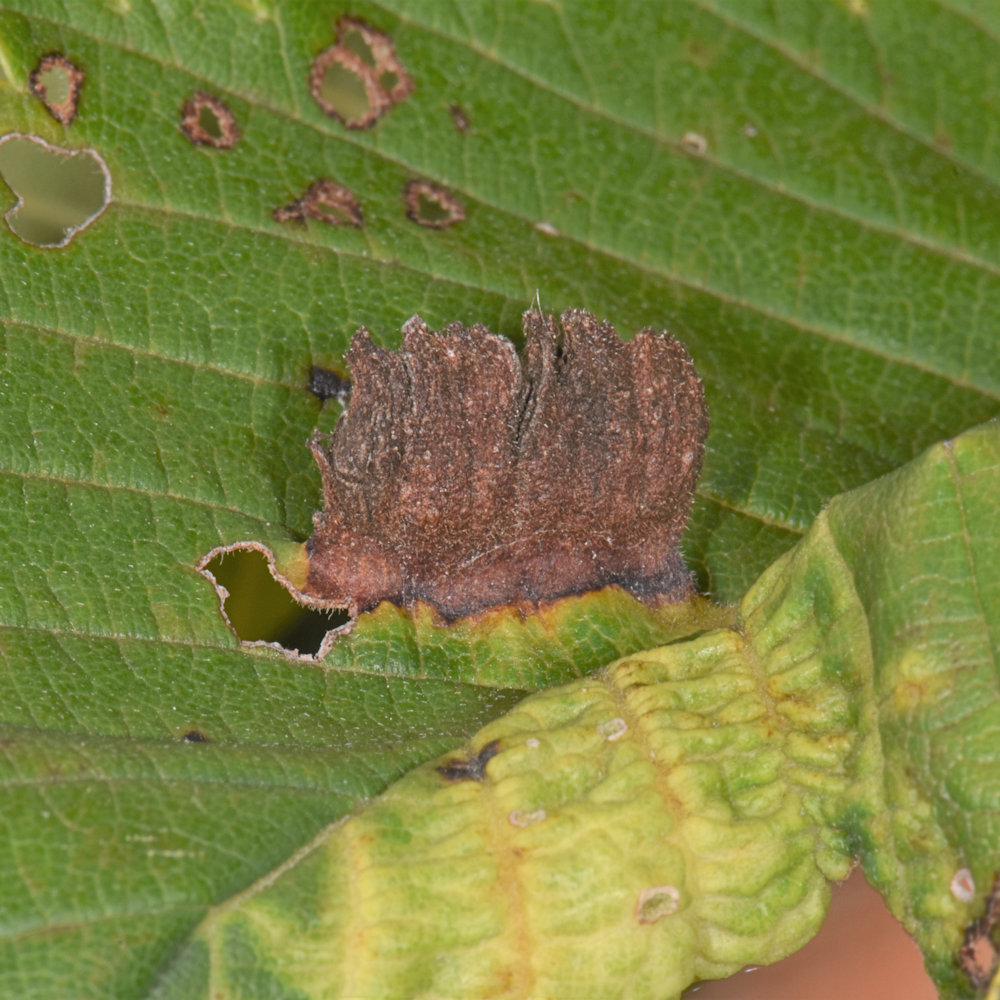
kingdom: Animalia
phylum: Arthropoda
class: Insecta
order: Hemiptera
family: Aphididae
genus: Colopha
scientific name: Colopha ulmicola
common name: Elm cockscombgall aphid
